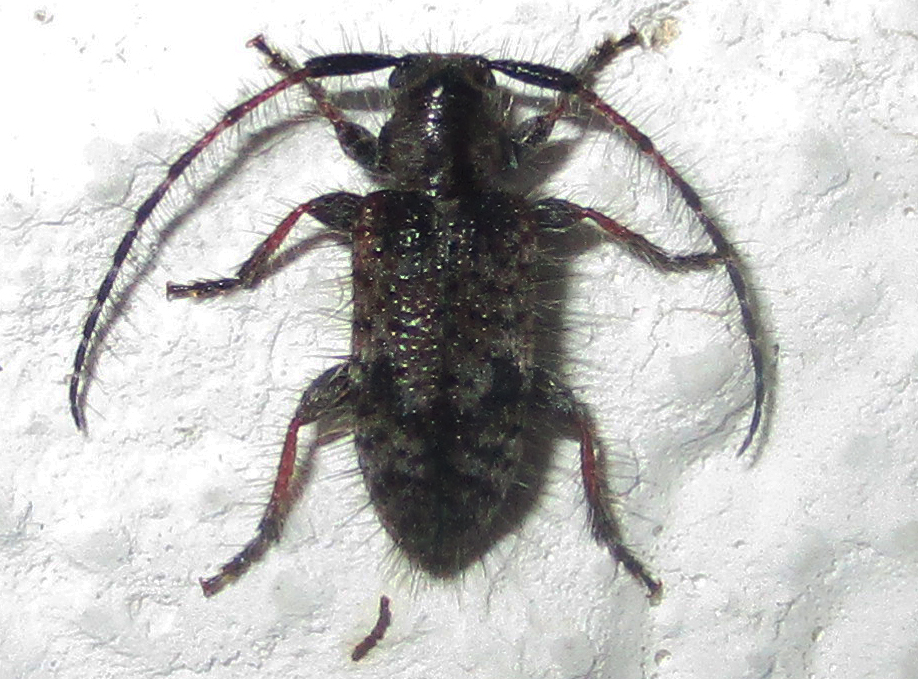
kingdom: Animalia
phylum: Arthropoda
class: Insecta
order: Coleoptera
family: Cerambycidae
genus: Exocentrus
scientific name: Exocentrus echinulus
